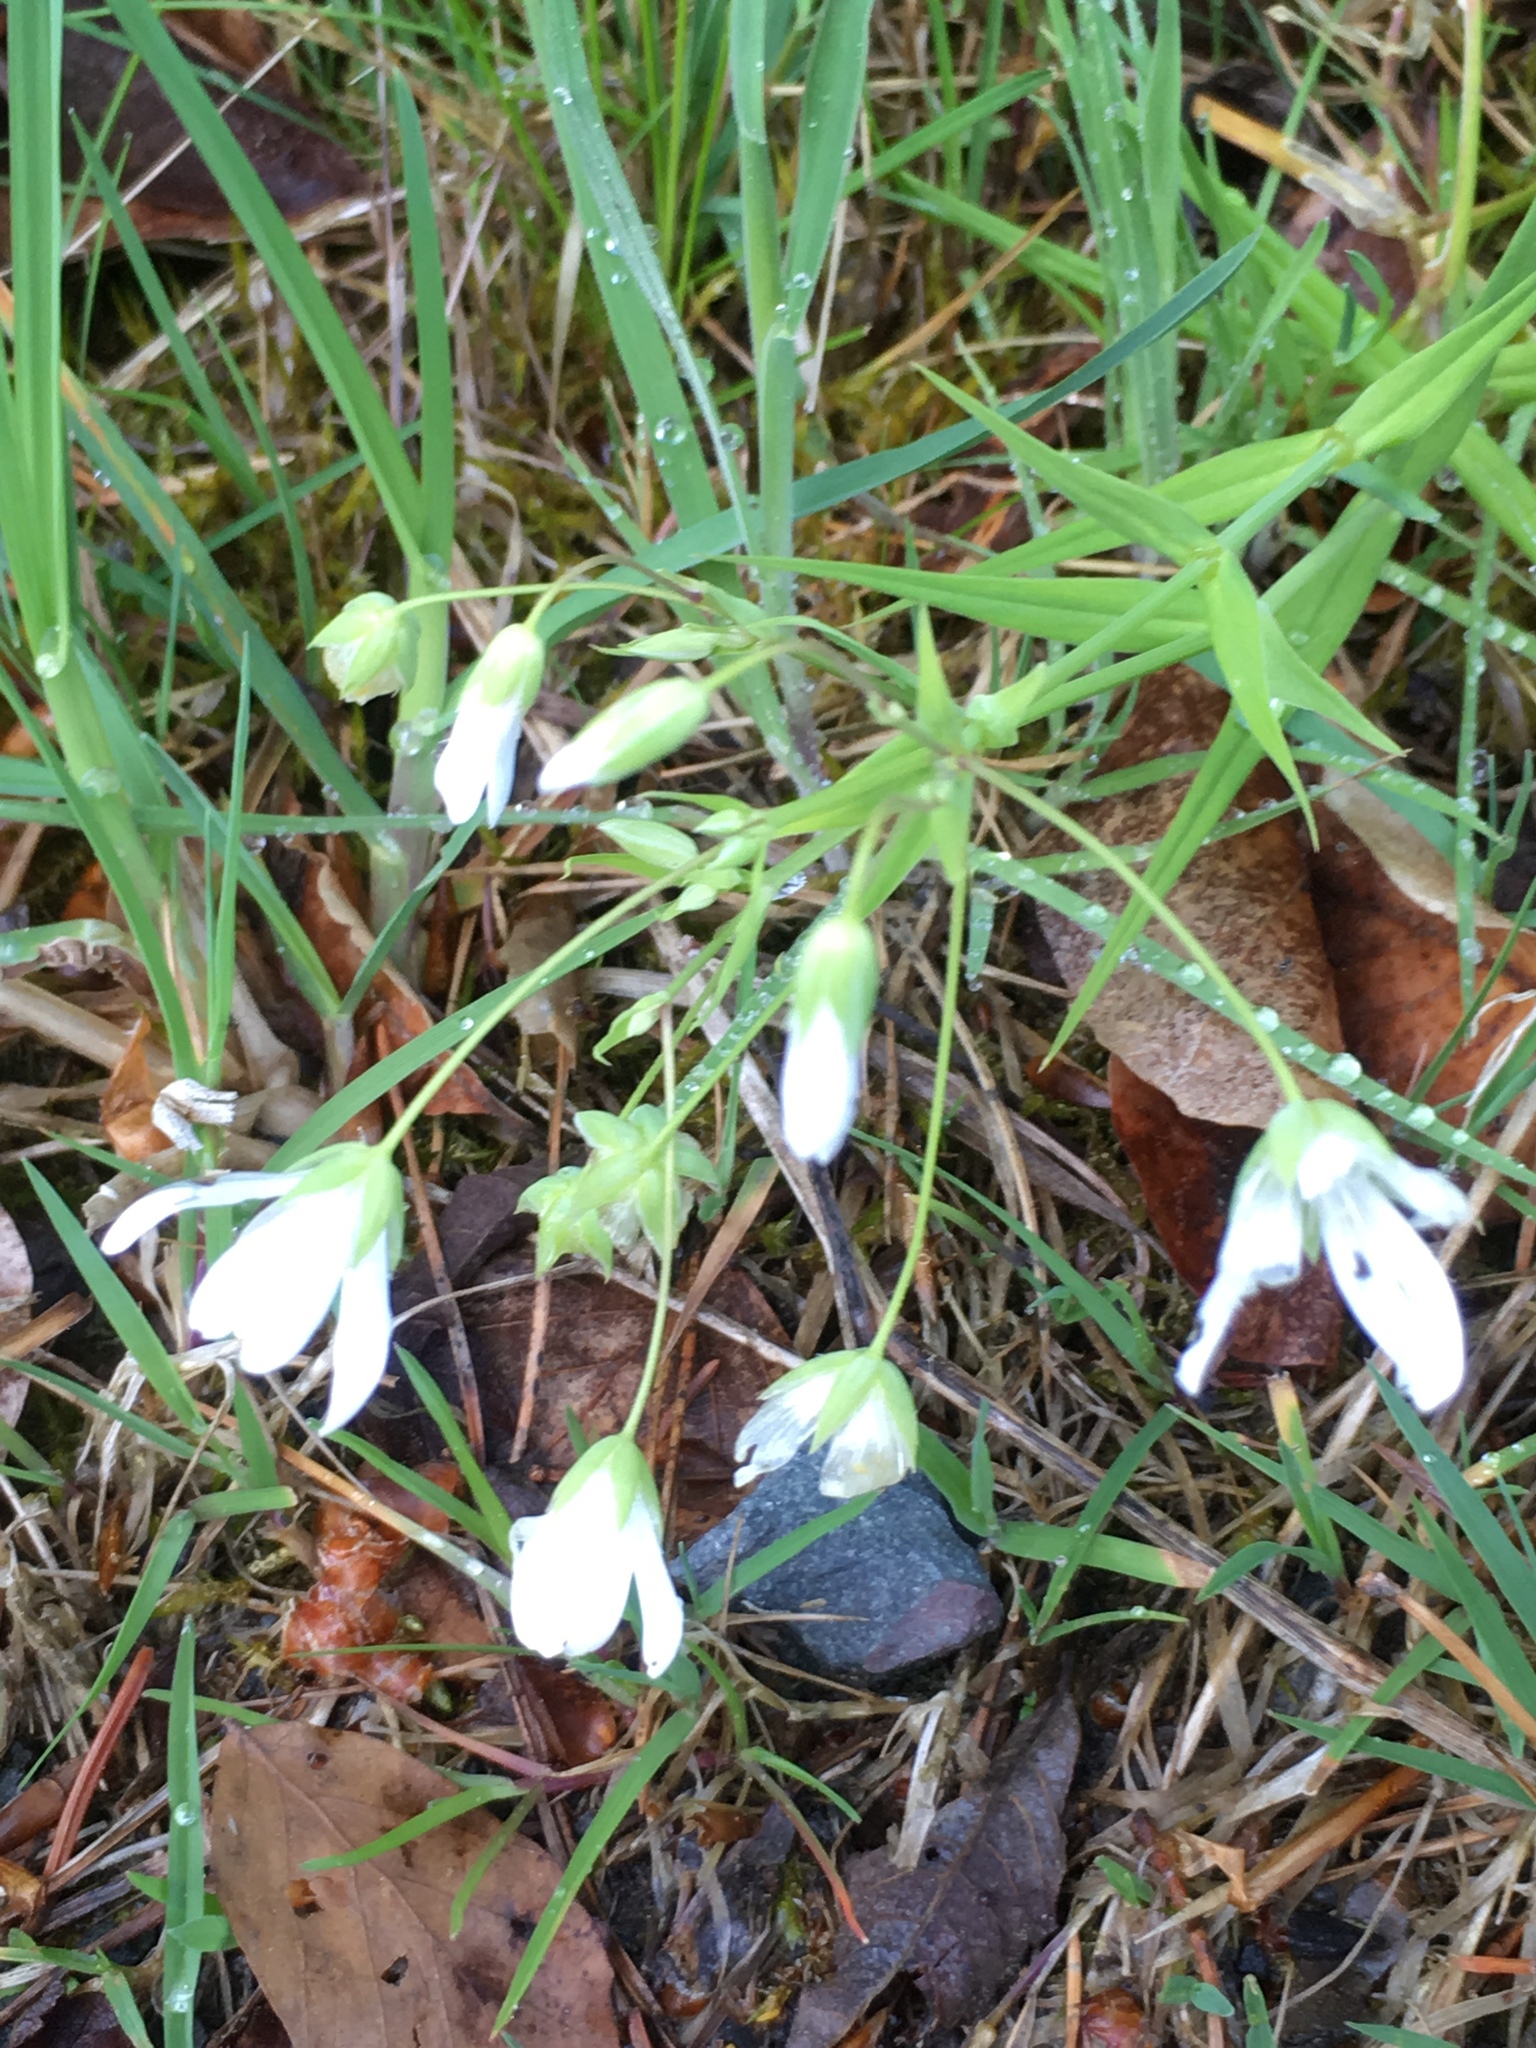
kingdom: Plantae
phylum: Tracheophyta
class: Magnoliopsida
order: Caryophyllales
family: Caryophyllaceae
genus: Rabelera
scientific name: Rabelera holostea
